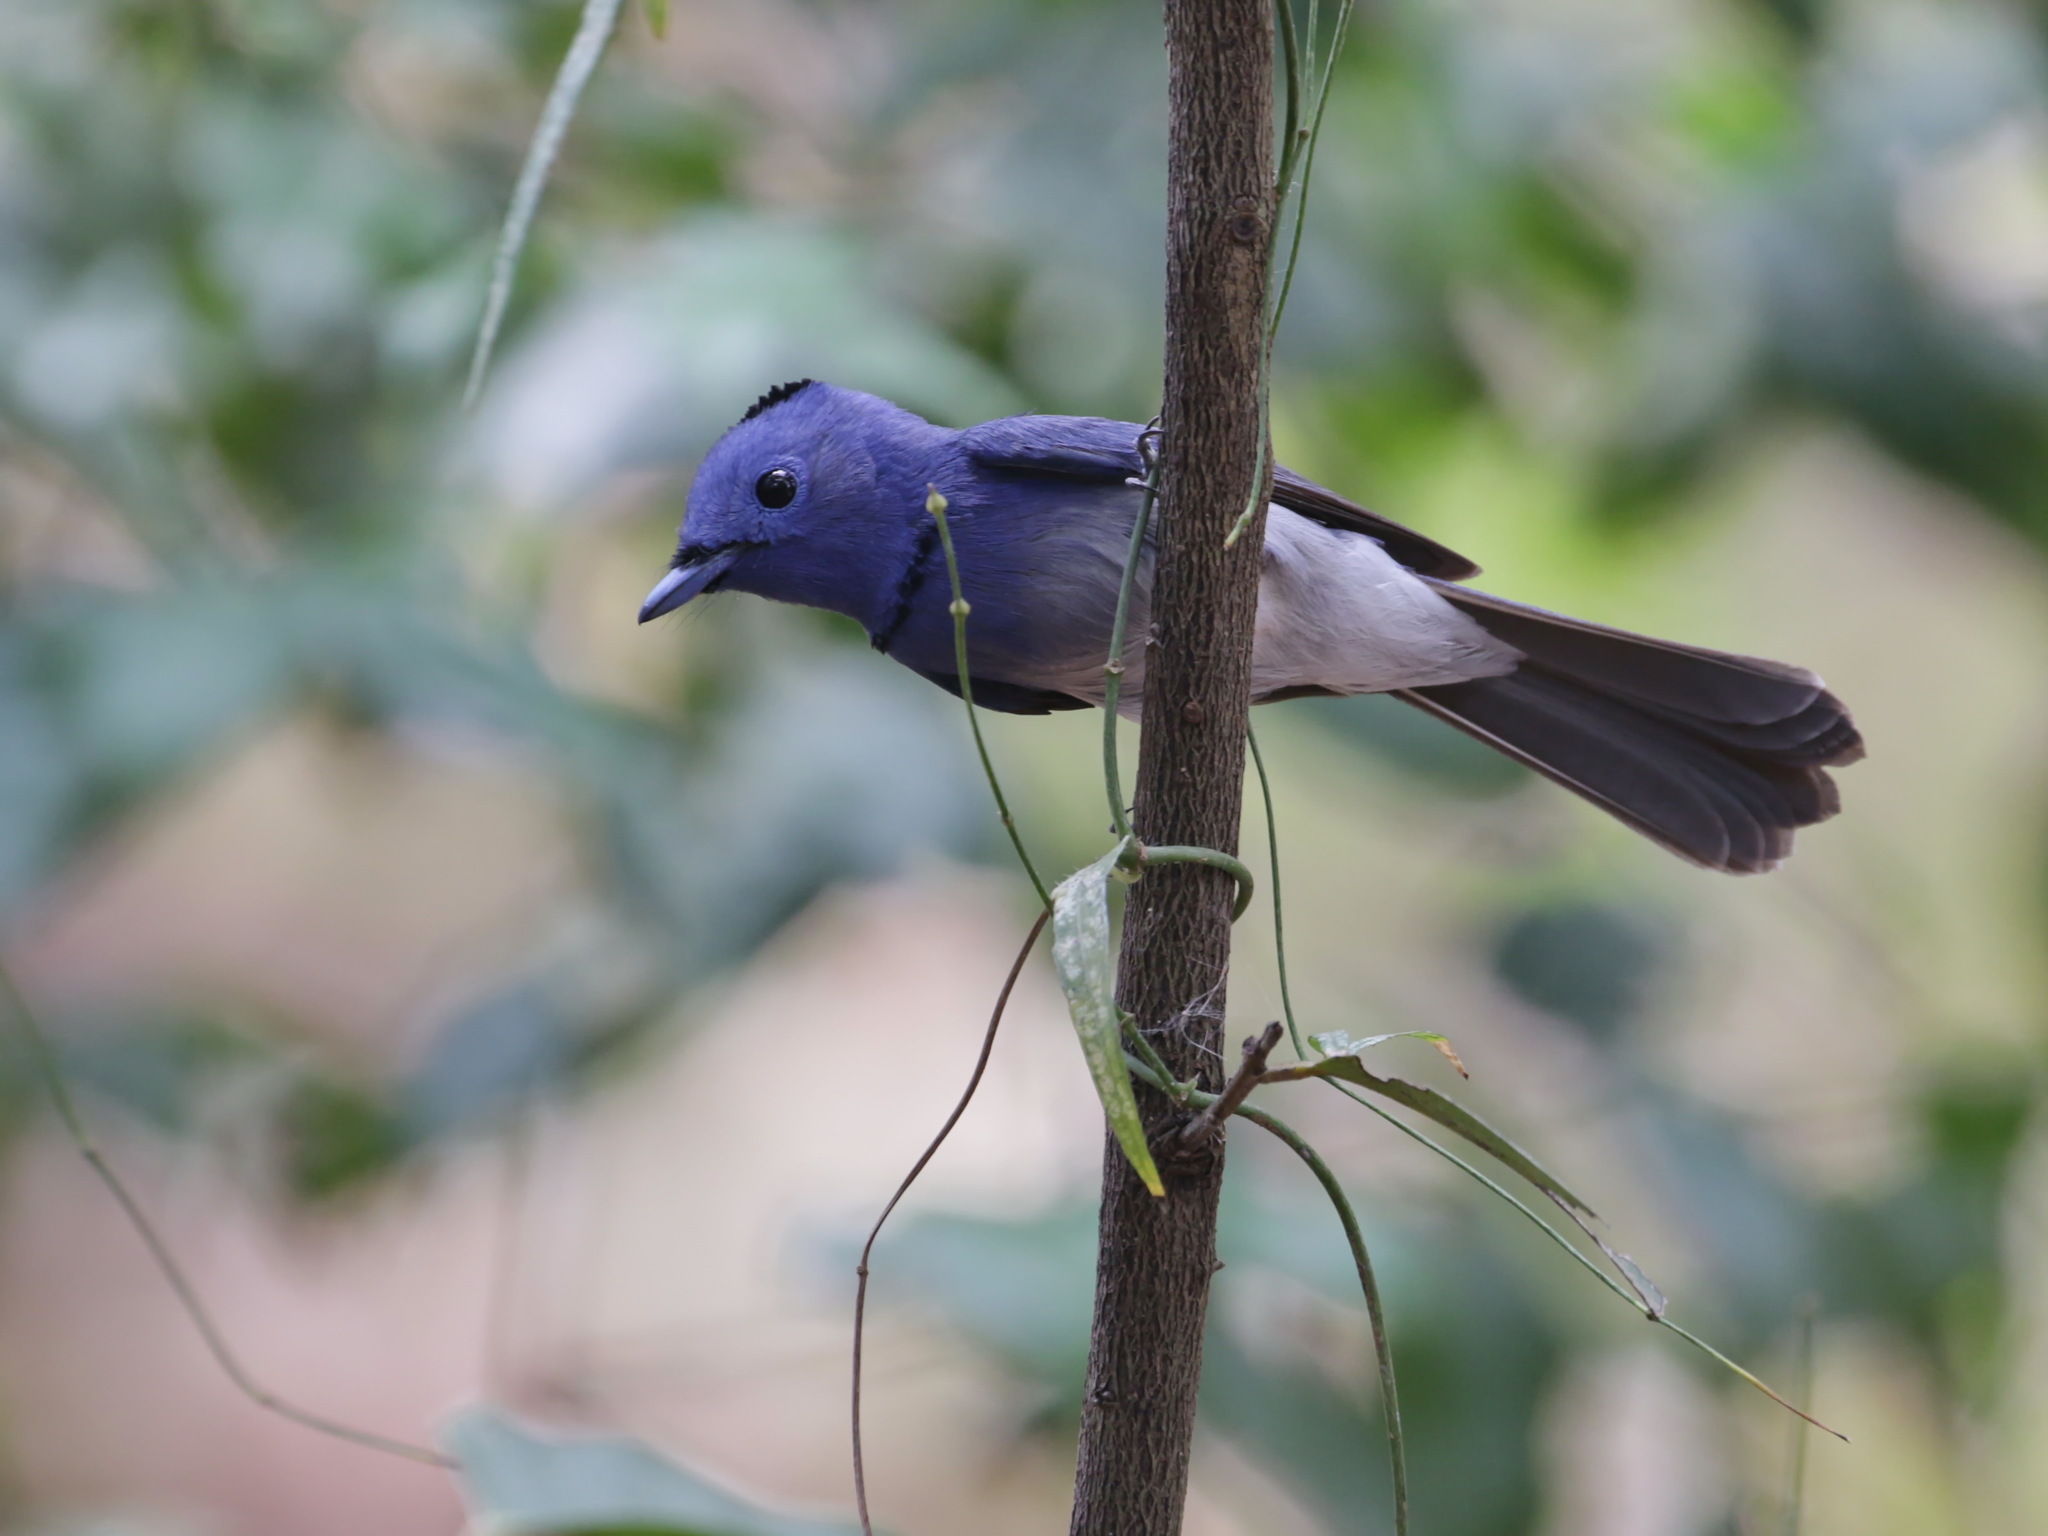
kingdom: Animalia
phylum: Chordata
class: Aves
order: Passeriformes
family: Monarchidae
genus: Hypothymis
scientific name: Hypothymis azurea
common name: Black-naped monarch
